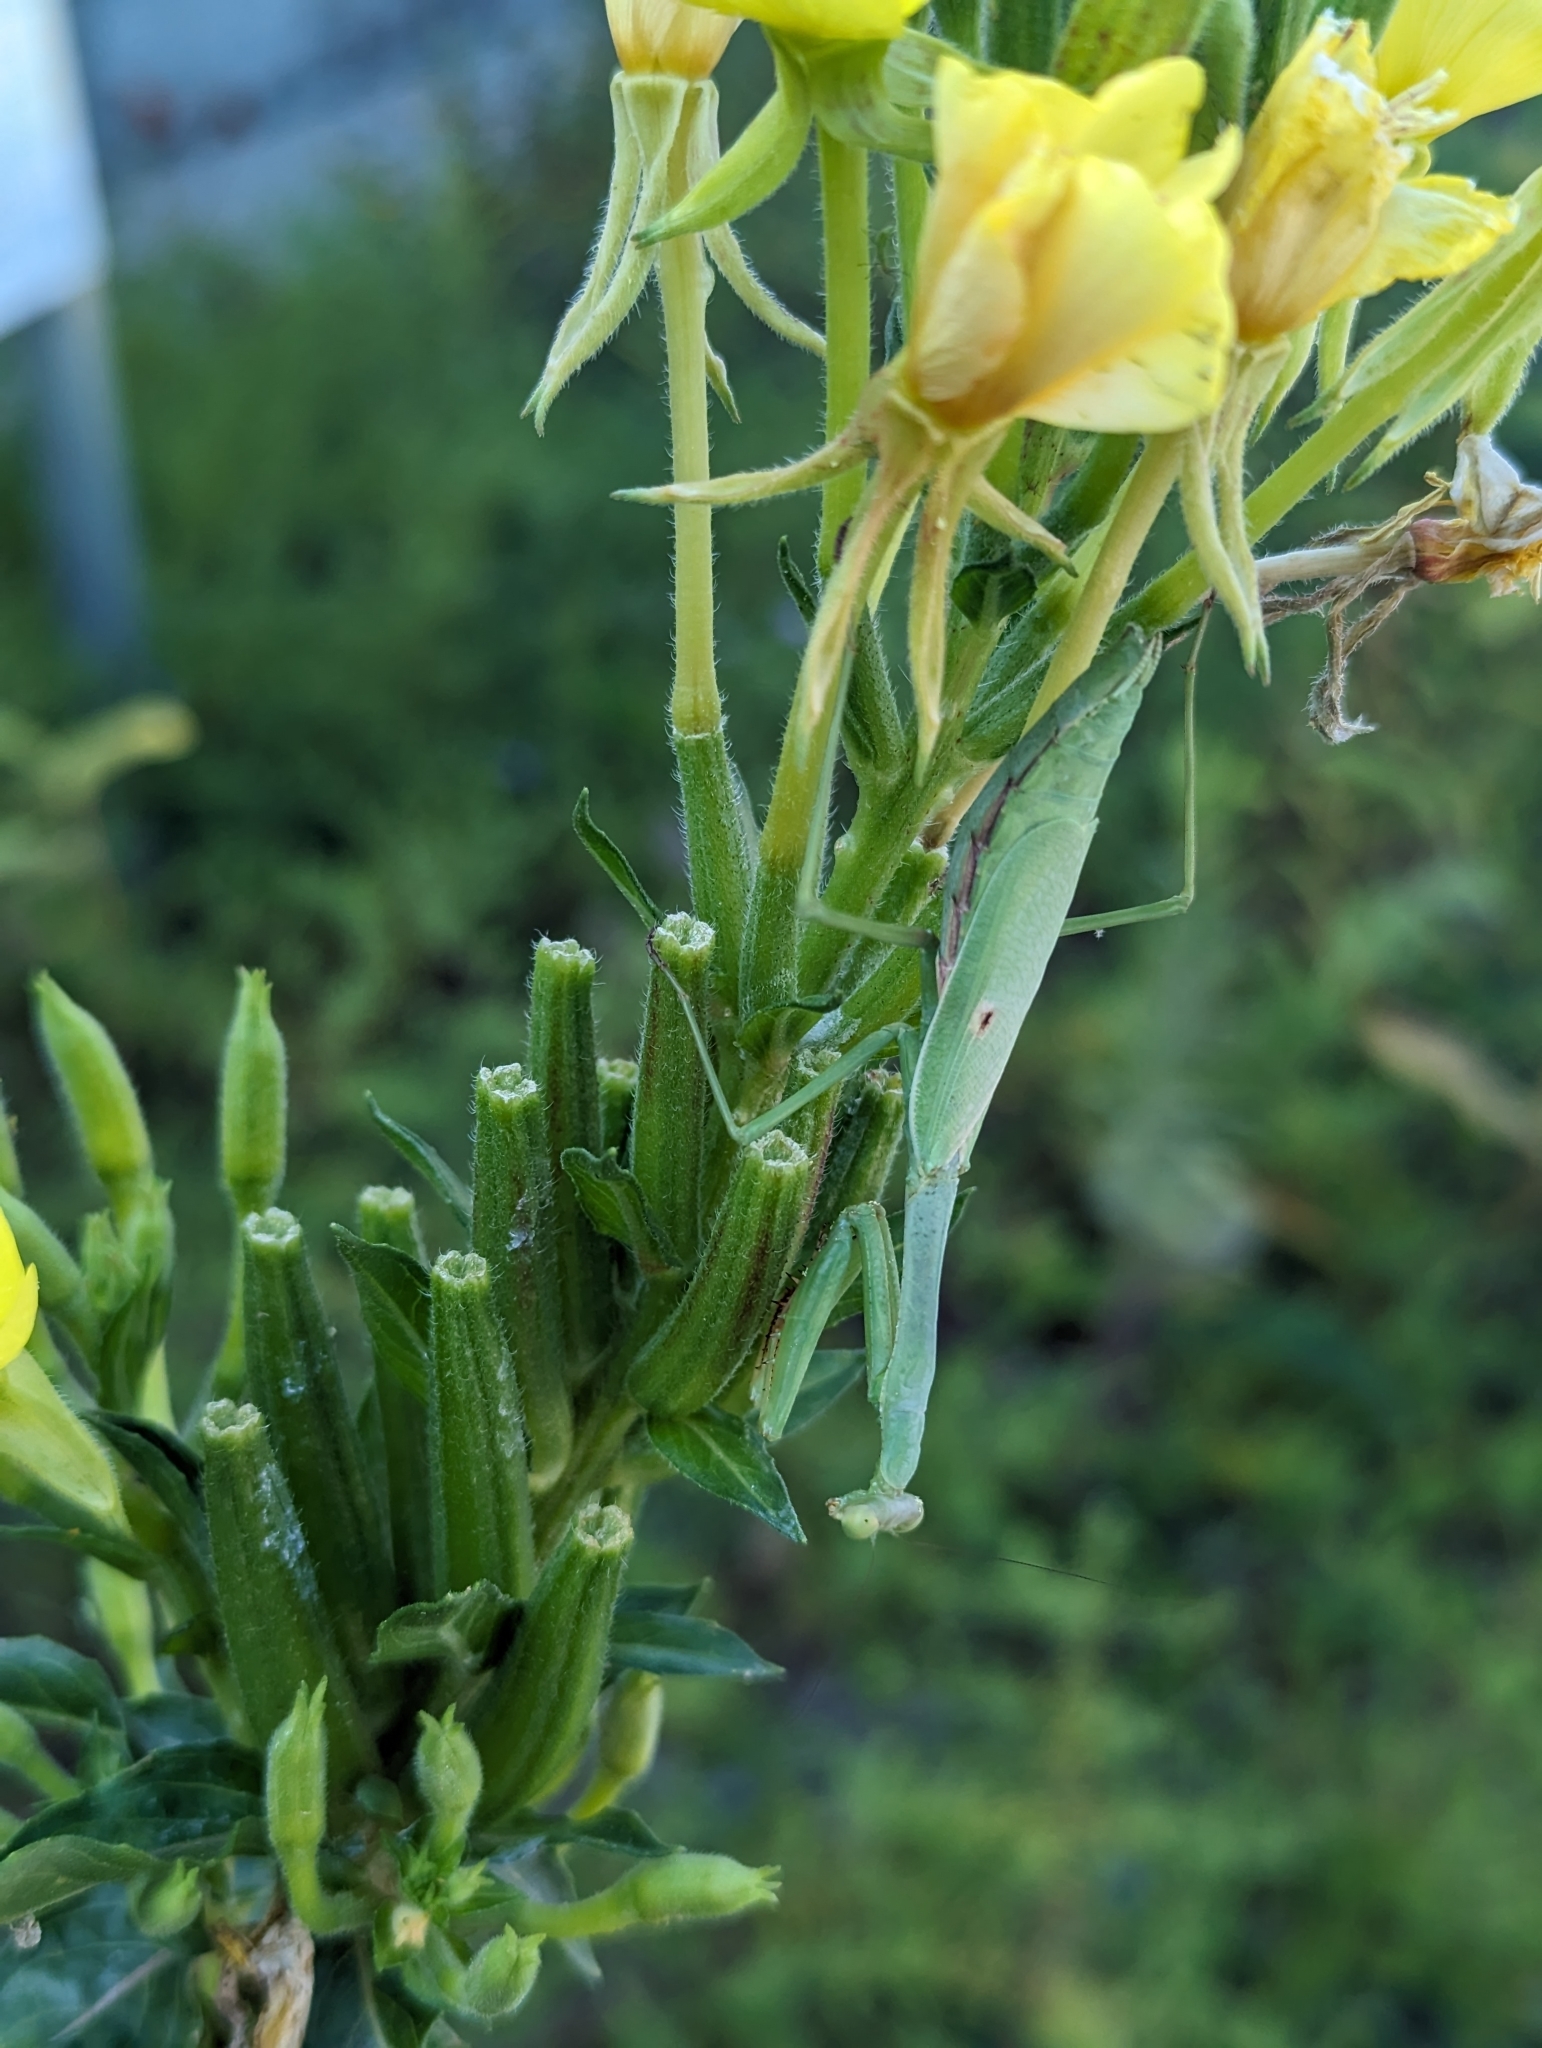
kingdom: Animalia
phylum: Arthropoda
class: Insecta
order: Mantodea
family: Mantidae
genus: Stagmomantis
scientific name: Stagmomantis carolina
